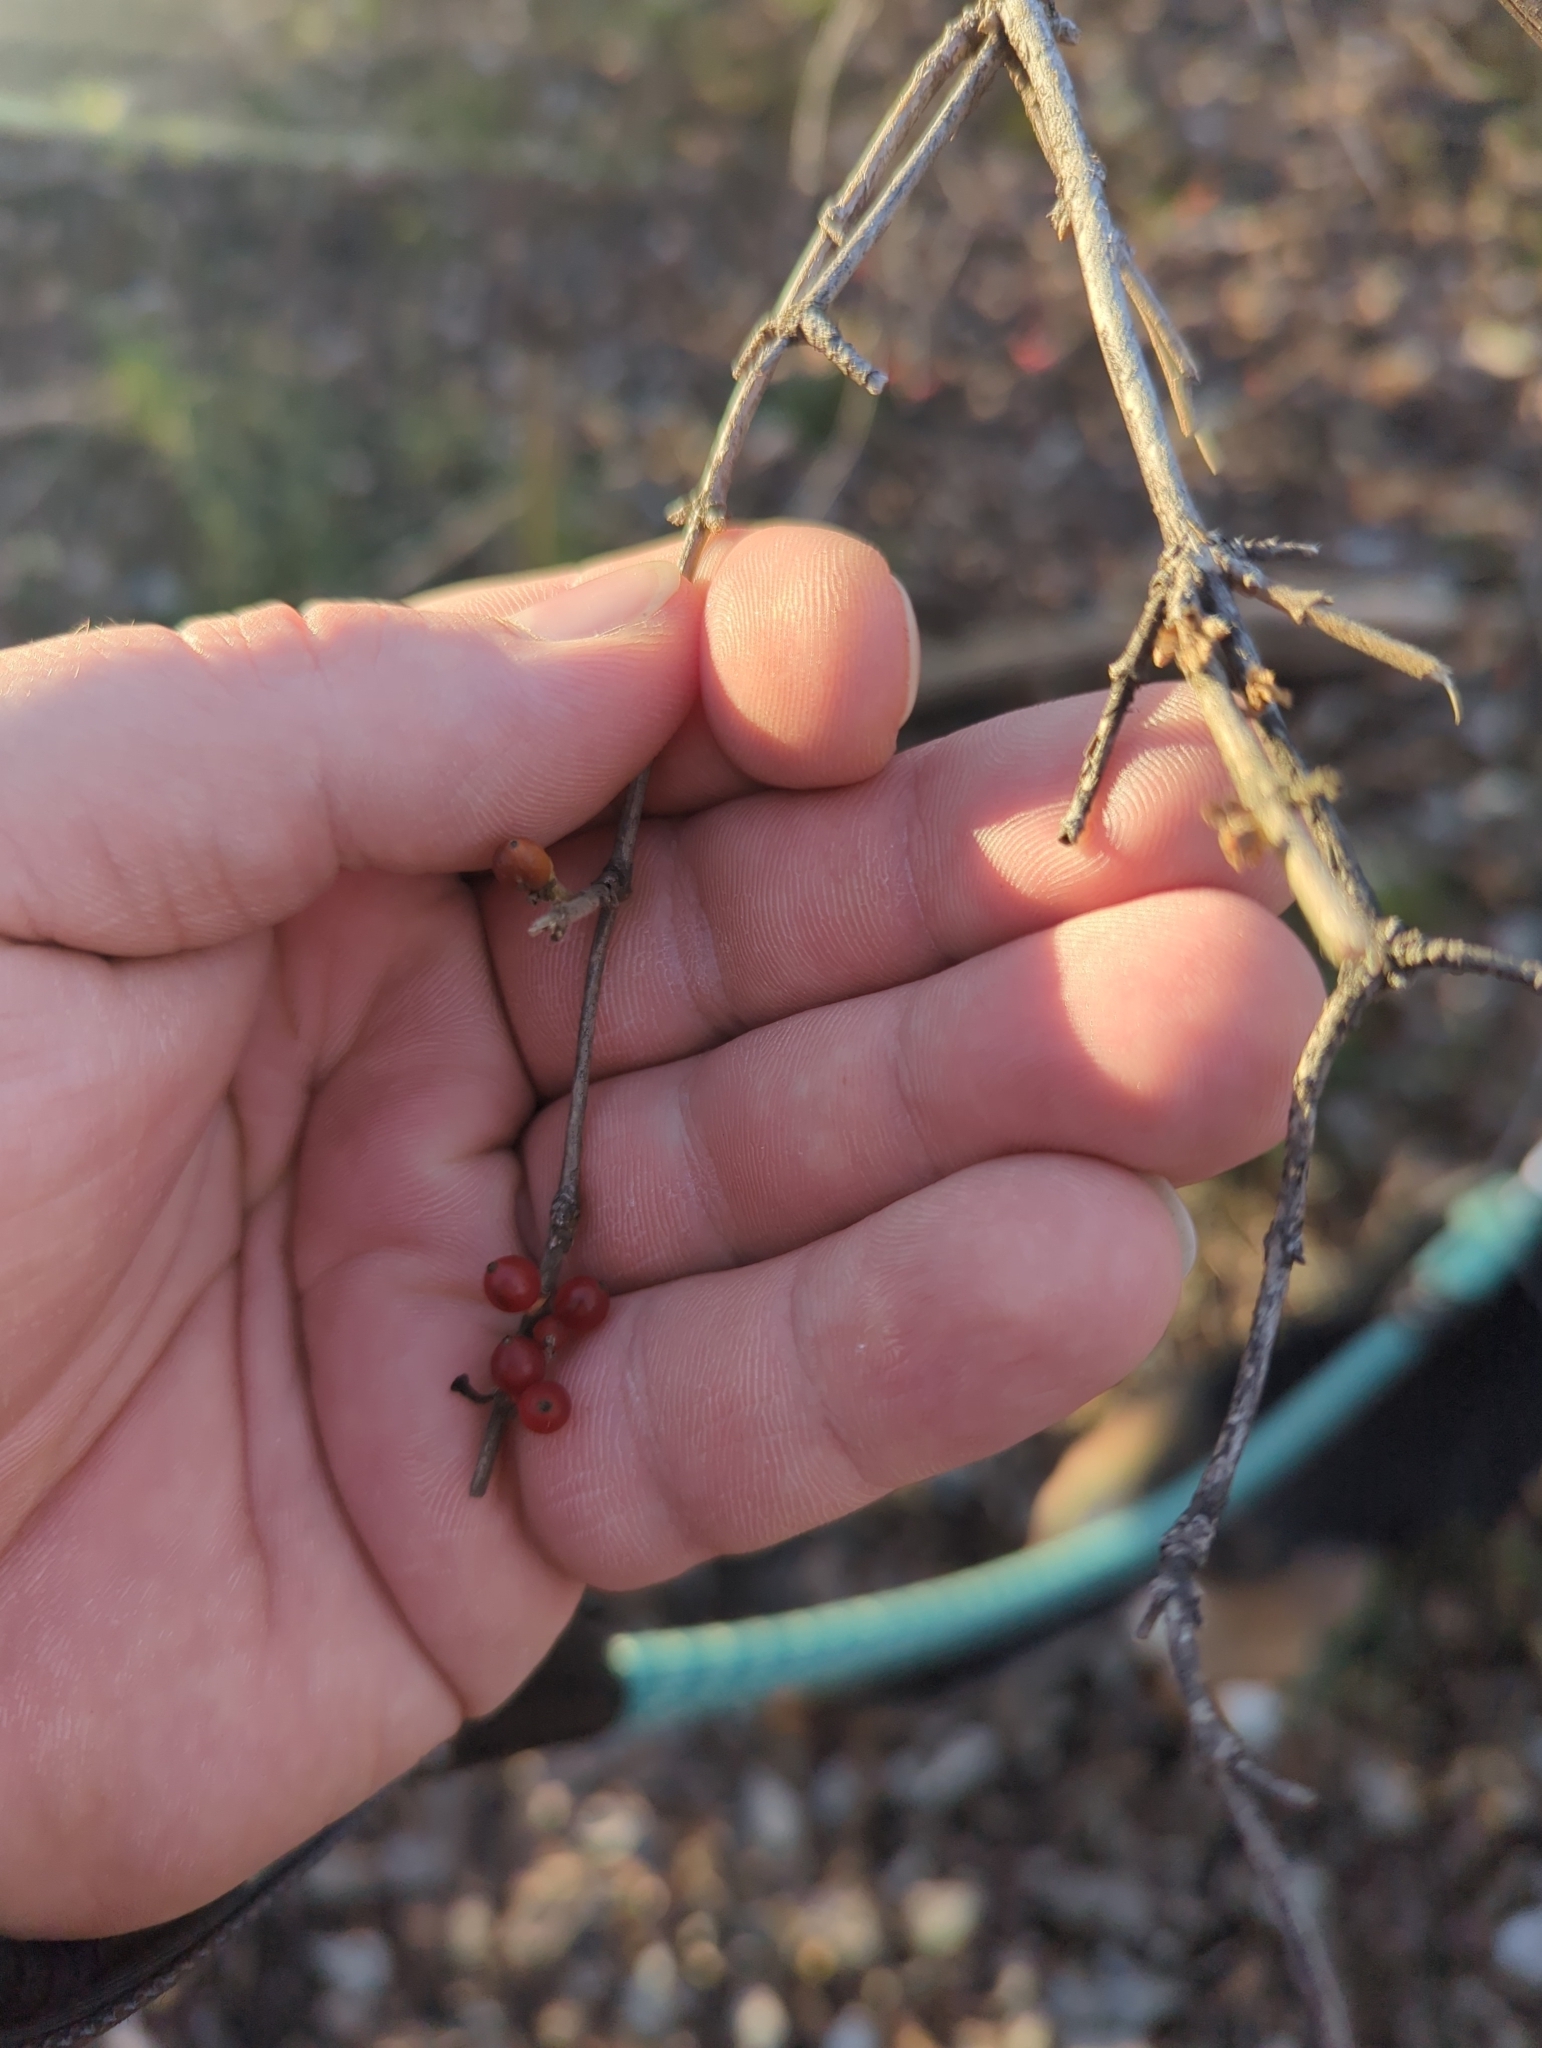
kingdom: Plantae
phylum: Tracheophyta
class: Magnoliopsida
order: Dipsacales
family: Caprifoliaceae
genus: Lonicera
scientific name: Lonicera maackii
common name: Amur honeysuckle
